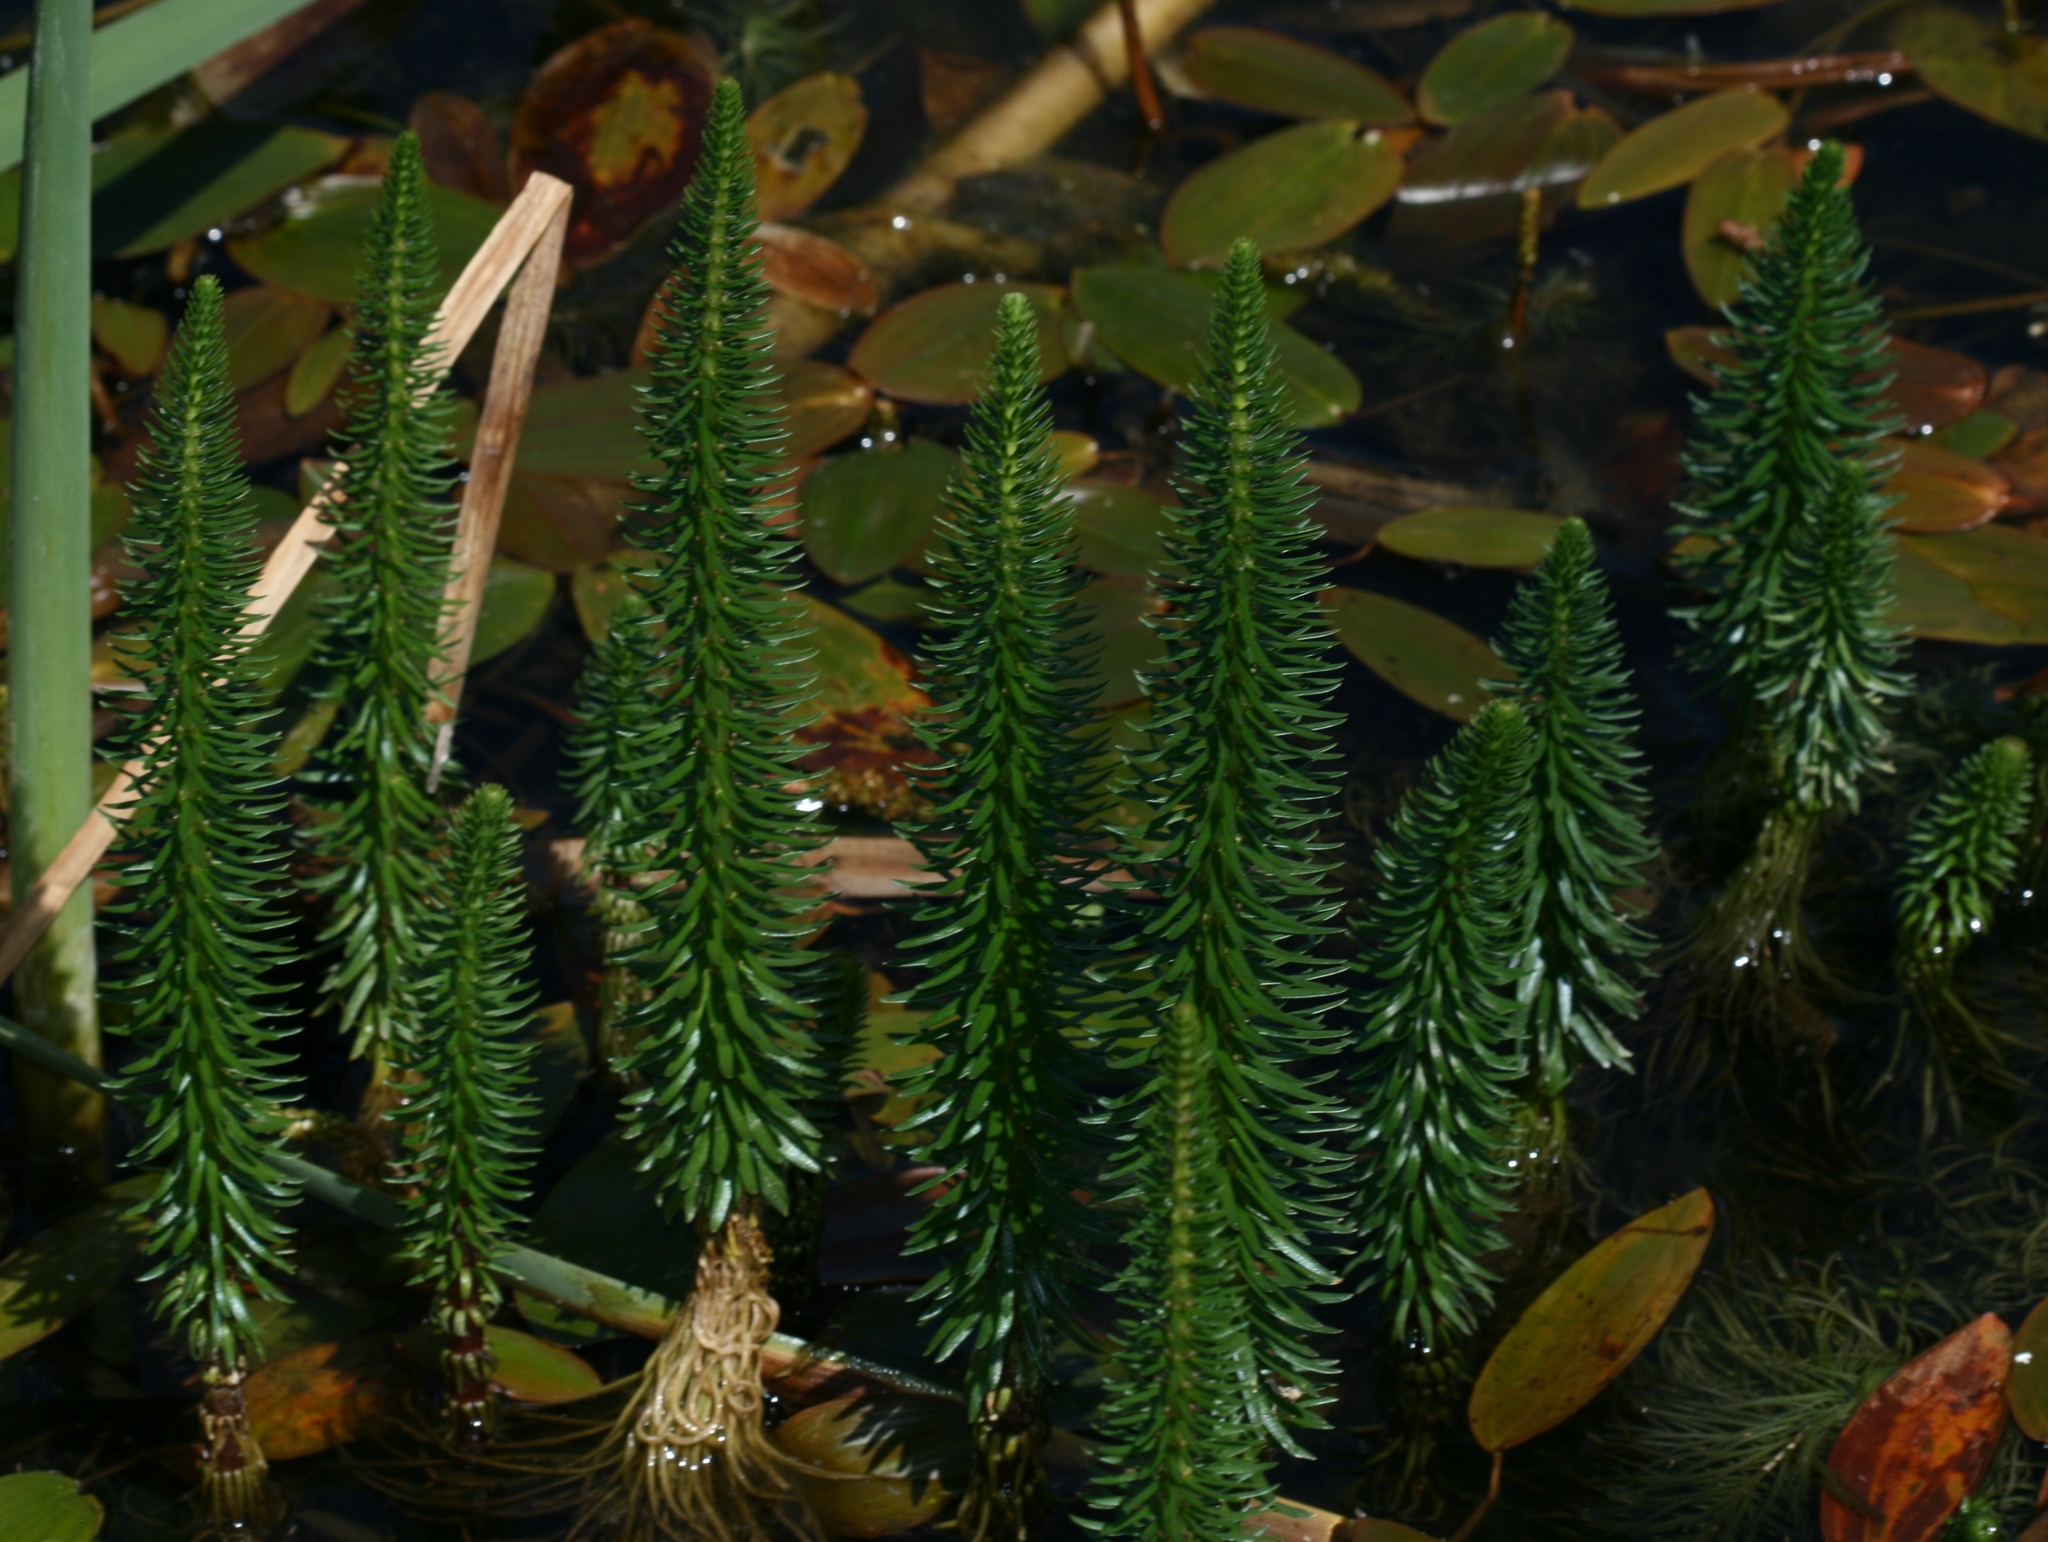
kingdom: Plantae
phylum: Tracheophyta
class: Magnoliopsida
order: Lamiales
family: Plantaginaceae
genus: Hippuris
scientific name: Hippuris vulgaris
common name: Mare's-tail
